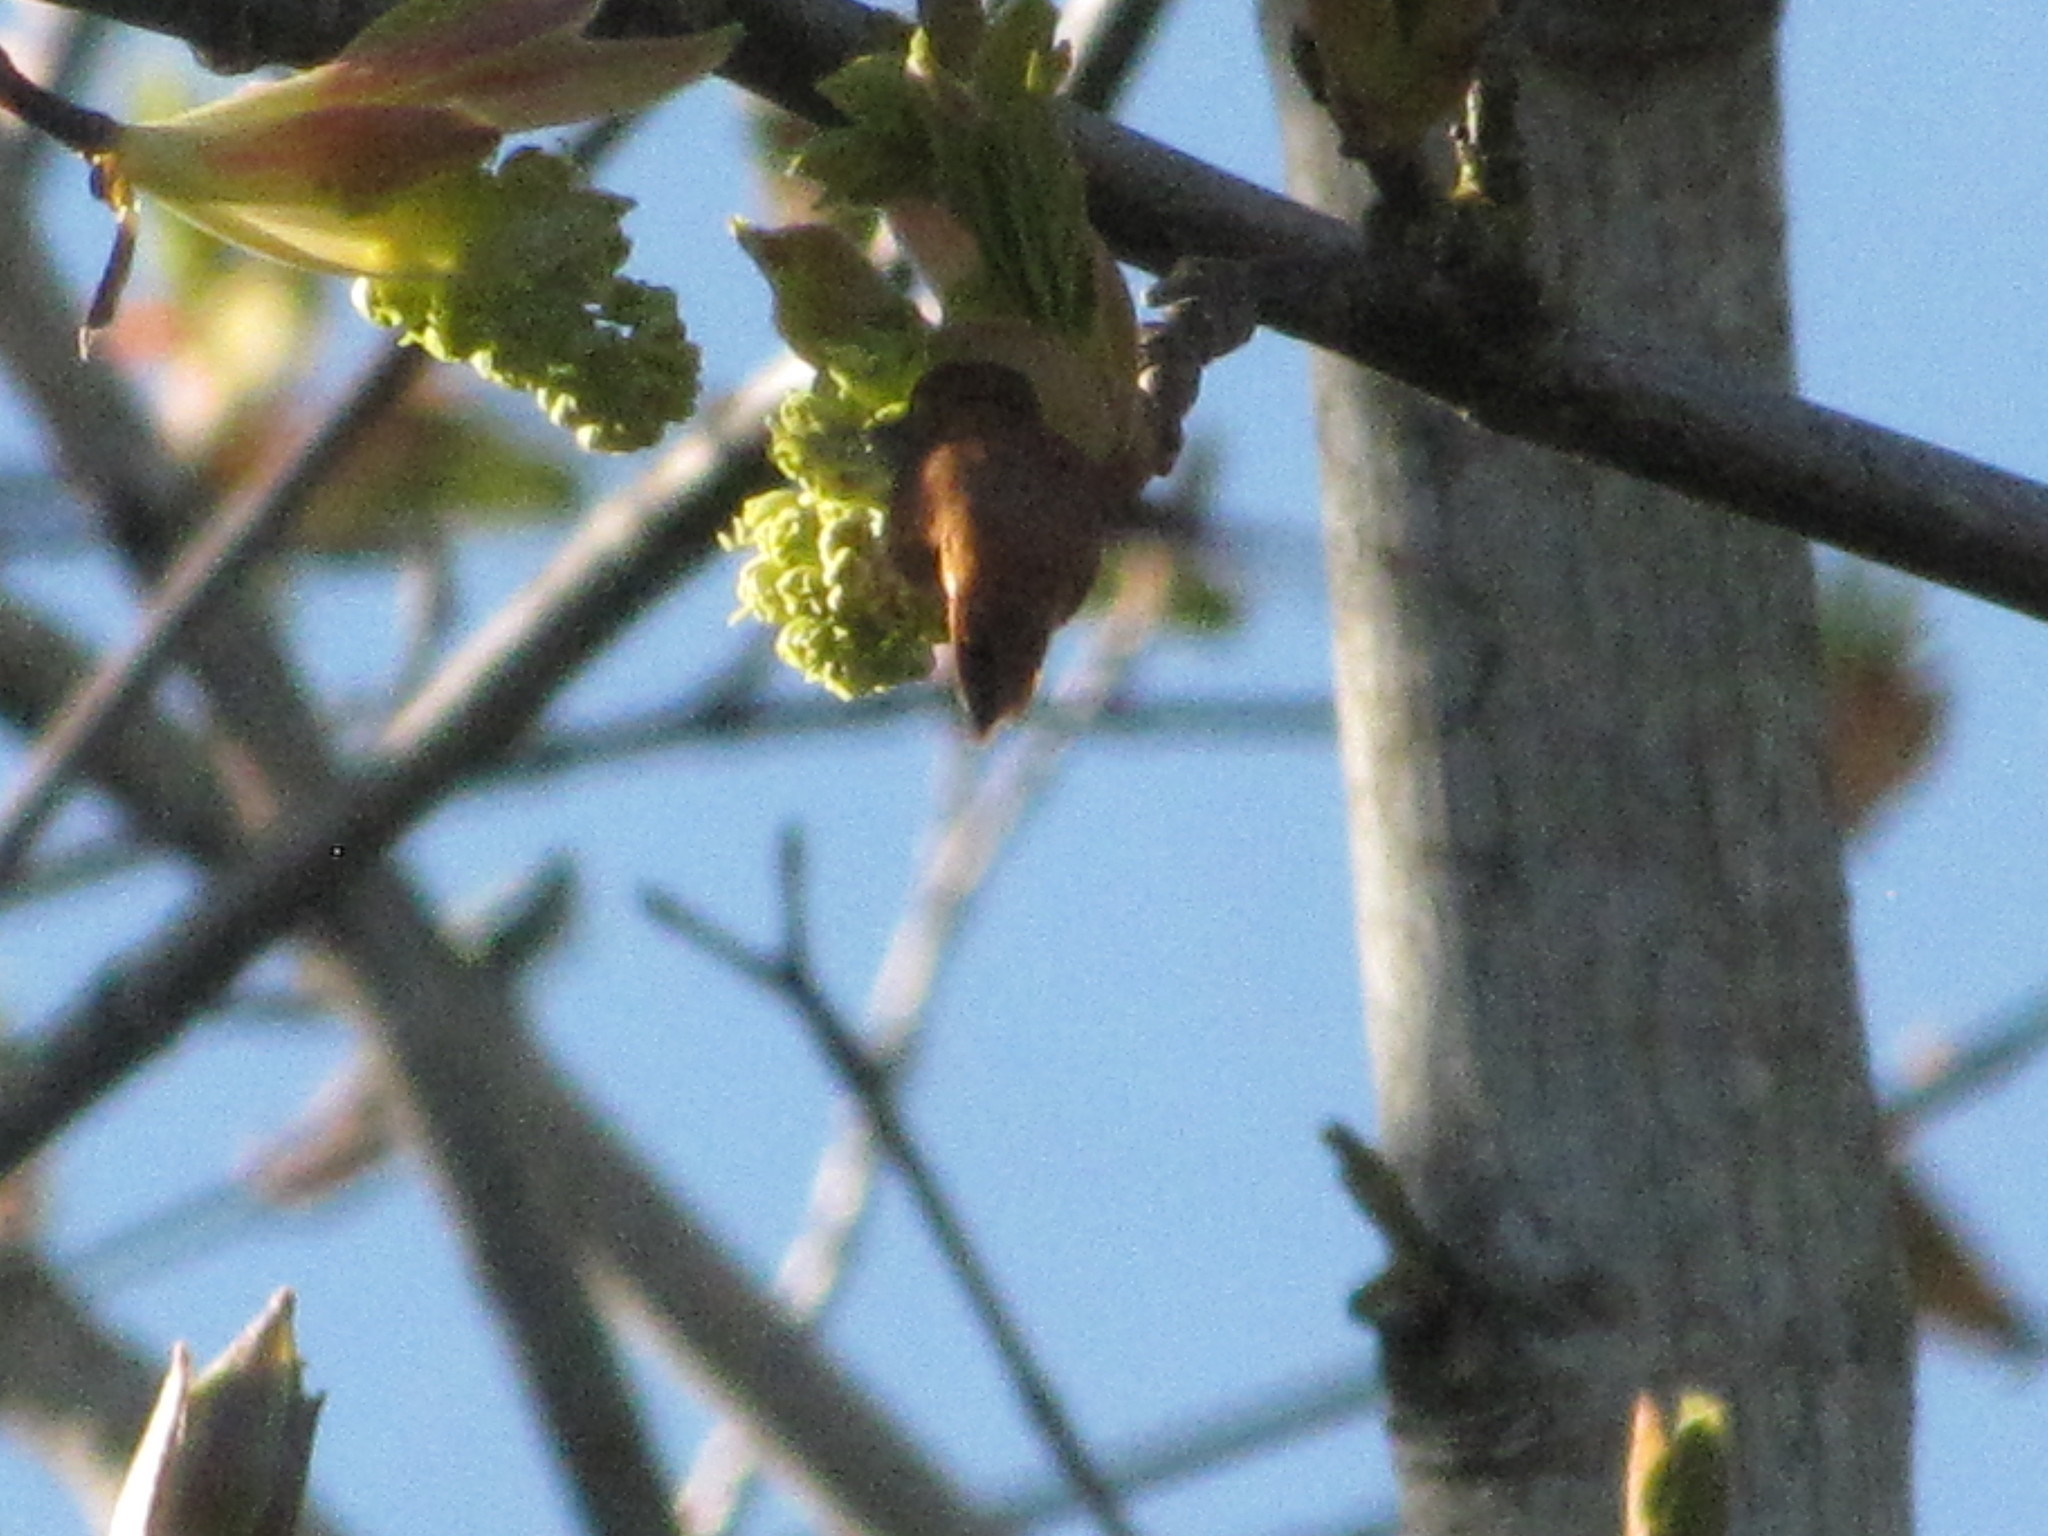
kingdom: Animalia
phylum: Chordata
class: Aves
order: Apodiformes
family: Trochilidae
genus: Selasphorus
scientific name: Selasphorus rufus
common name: Rufous hummingbird
